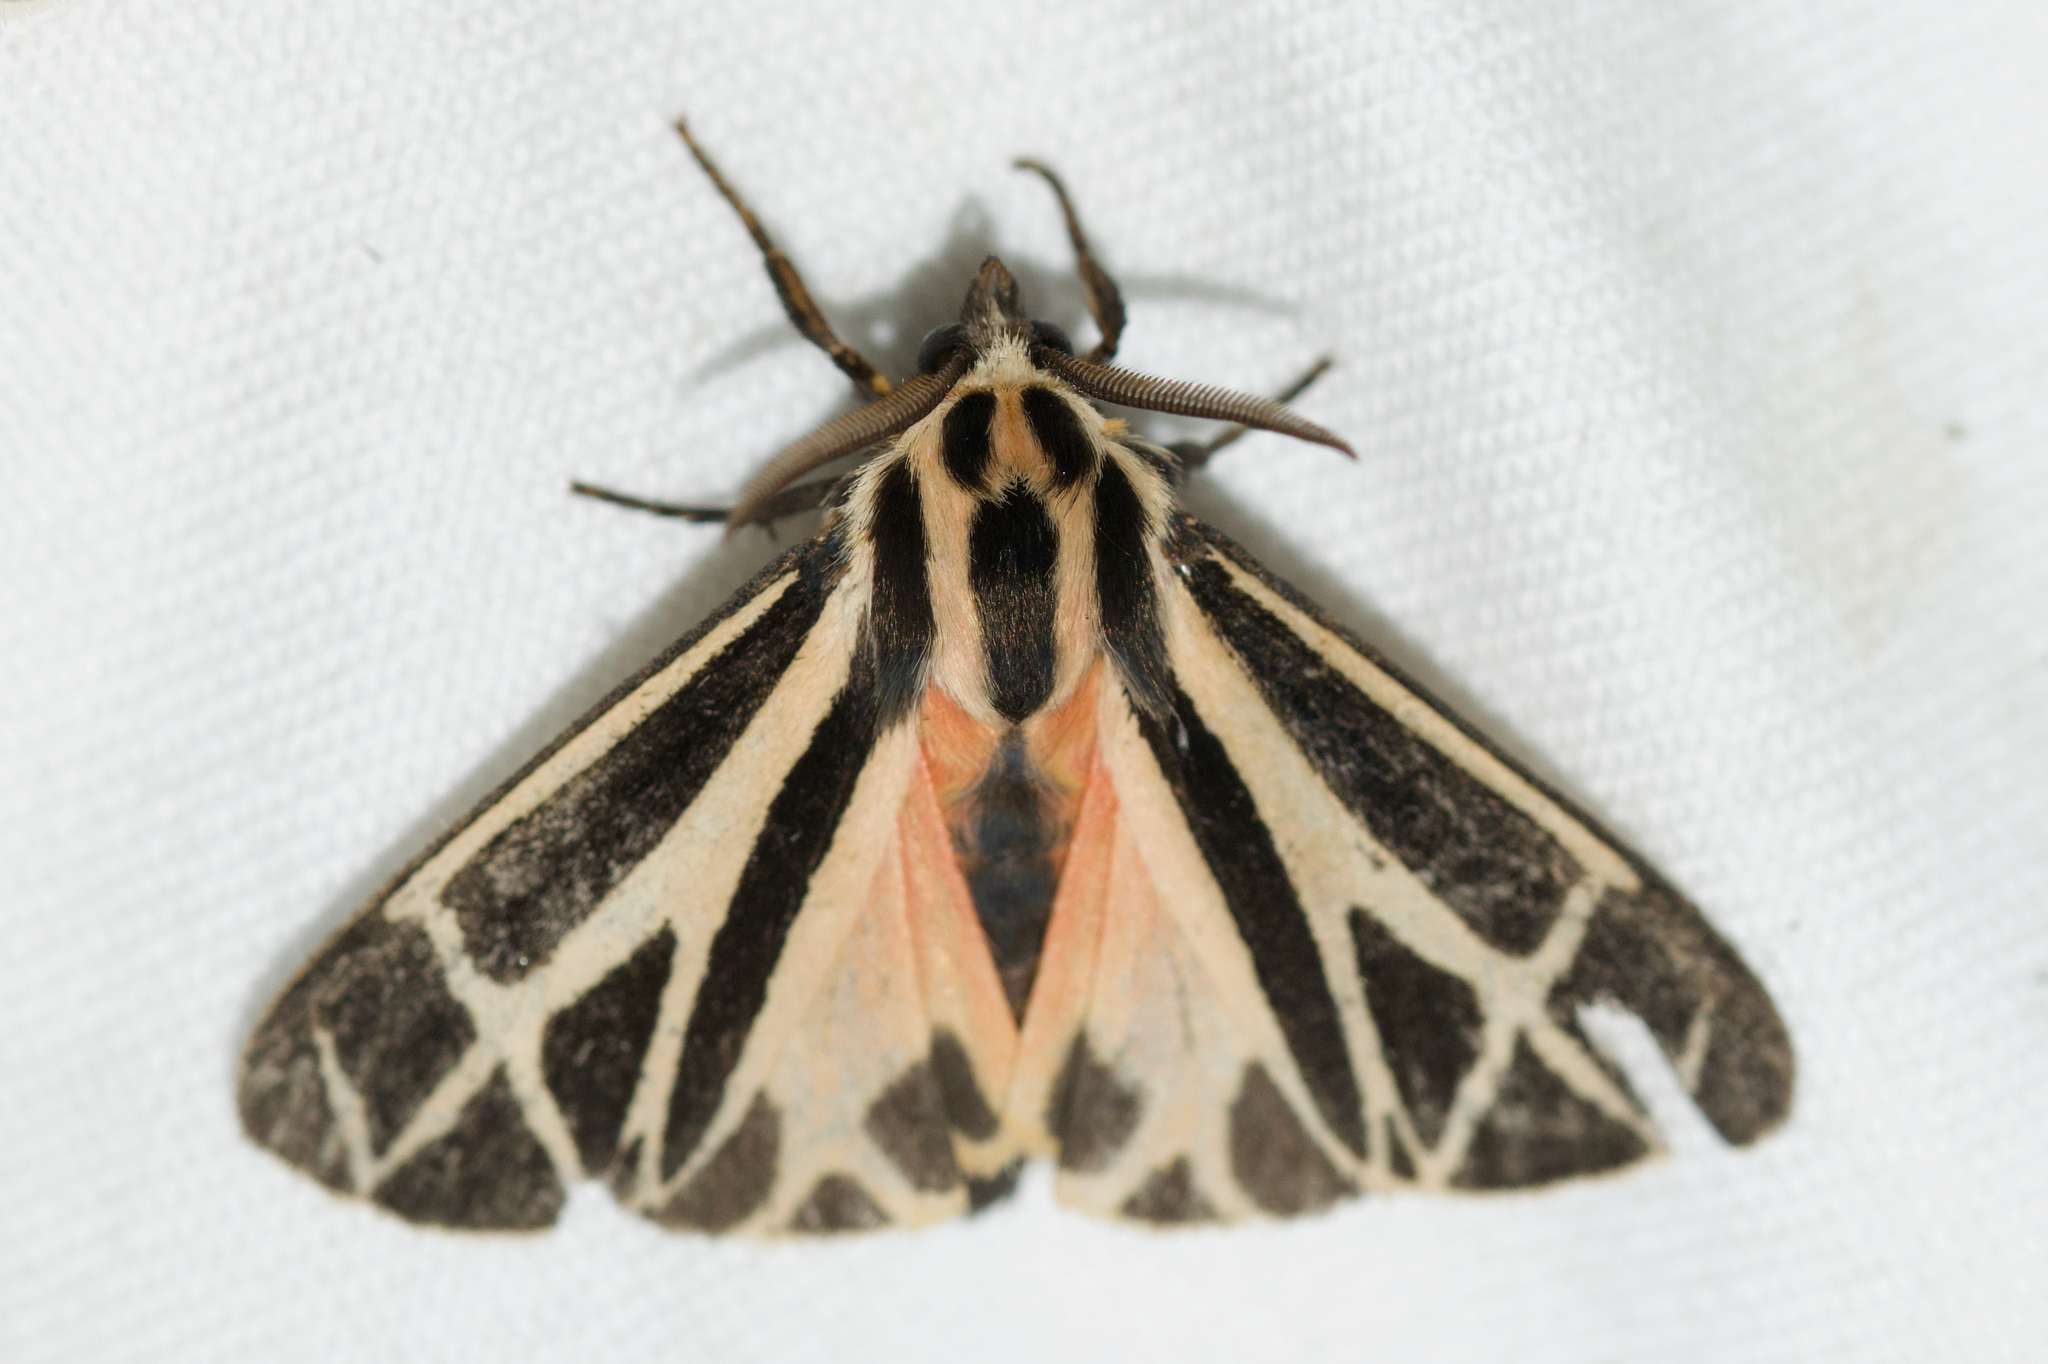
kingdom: Animalia
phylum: Arthropoda
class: Insecta
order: Lepidoptera
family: Erebidae
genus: Apantesis
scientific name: Apantesis phalerata
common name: Harnessed tiger moth
